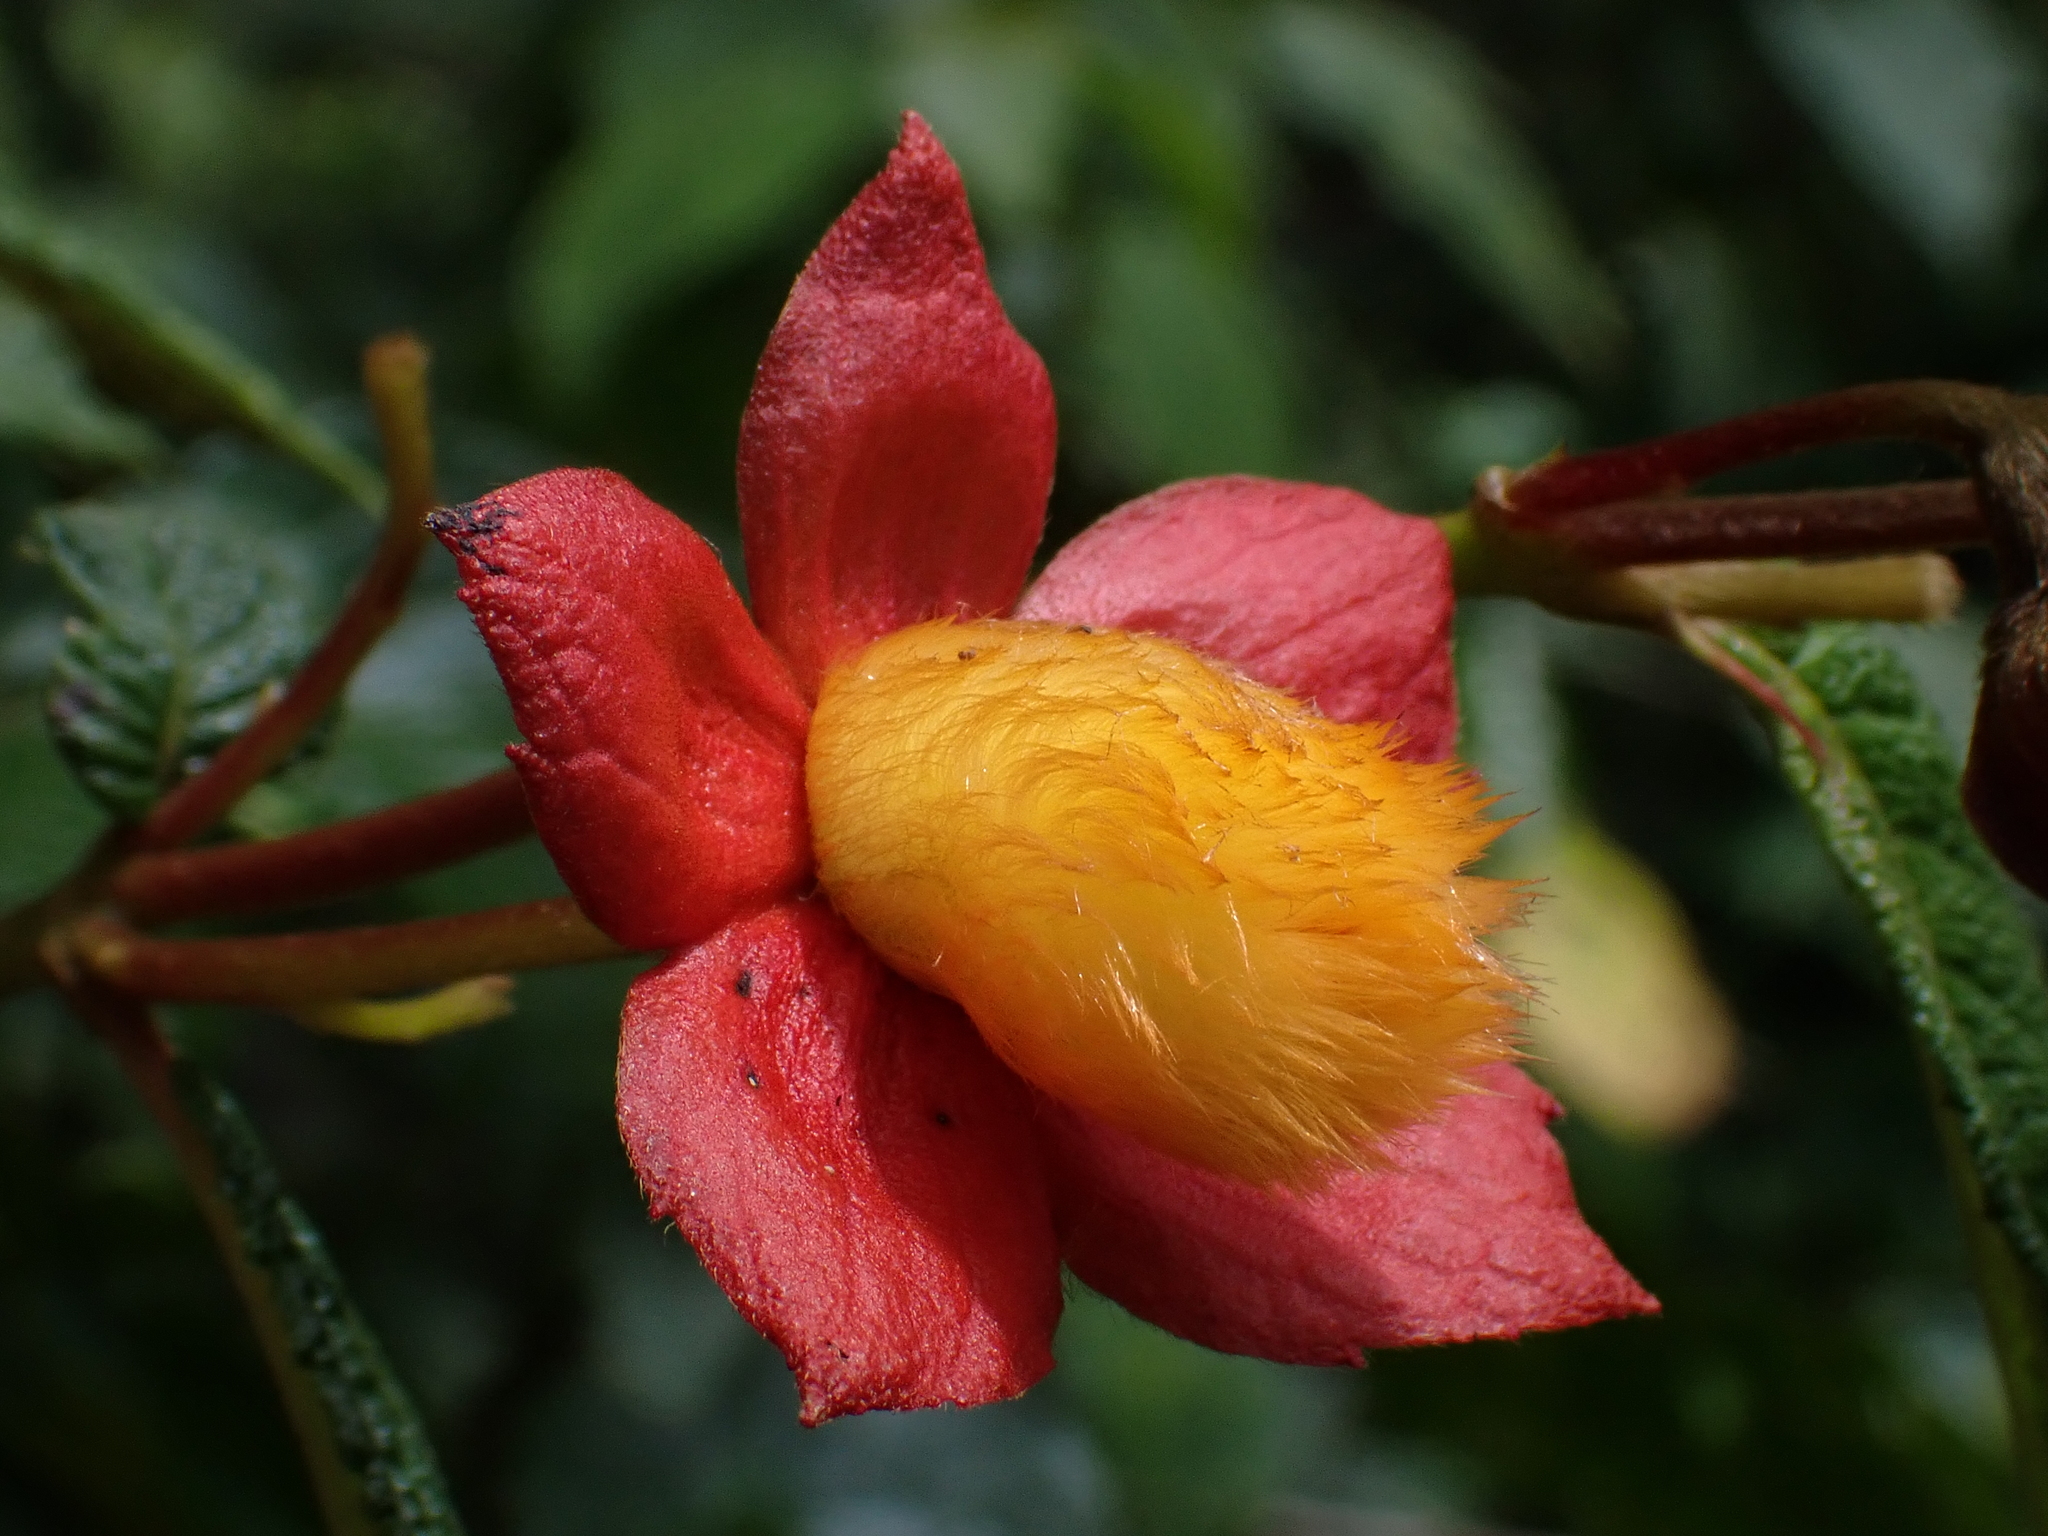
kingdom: Plantae
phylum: Tracheophyta
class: Magnoliopsida
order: Lamiales
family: Gesneriaceae
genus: Kohleria
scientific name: Kohleria hypertrichosa
